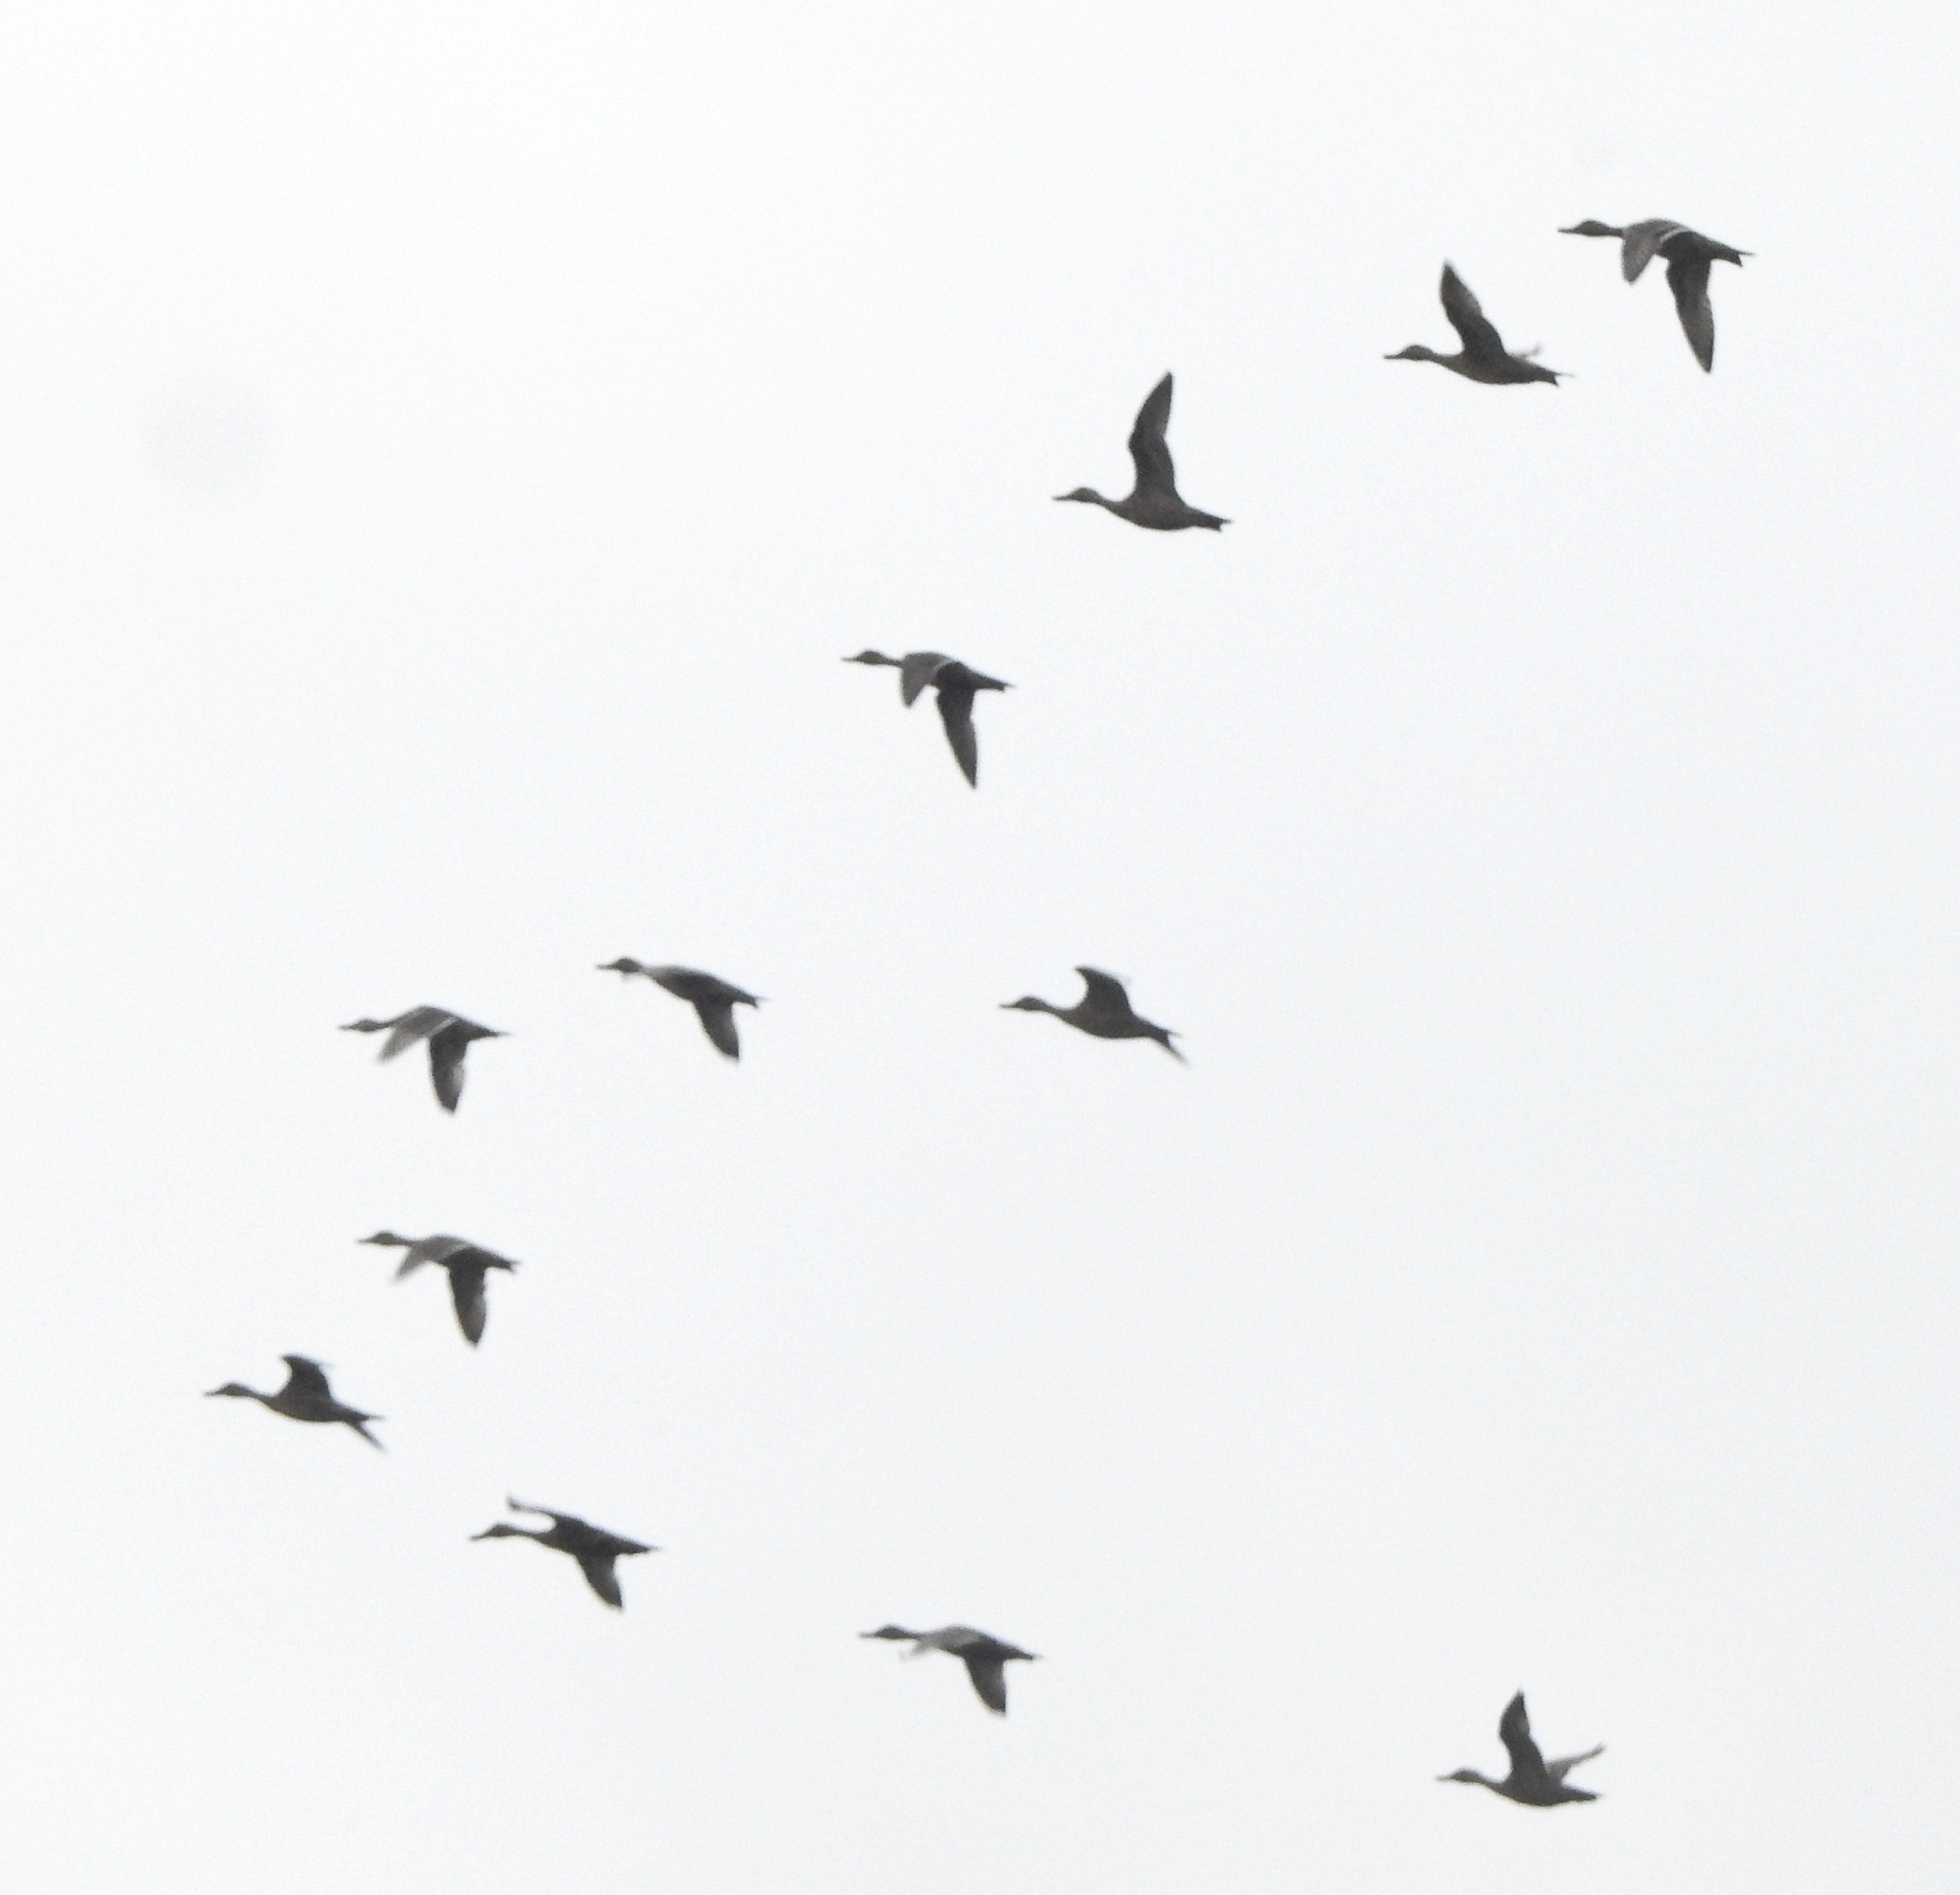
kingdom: Animalia
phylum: Chordata
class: Aves
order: Anseriformes
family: Anatidae
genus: Anas
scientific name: Anas acuta
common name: Northern pintail
